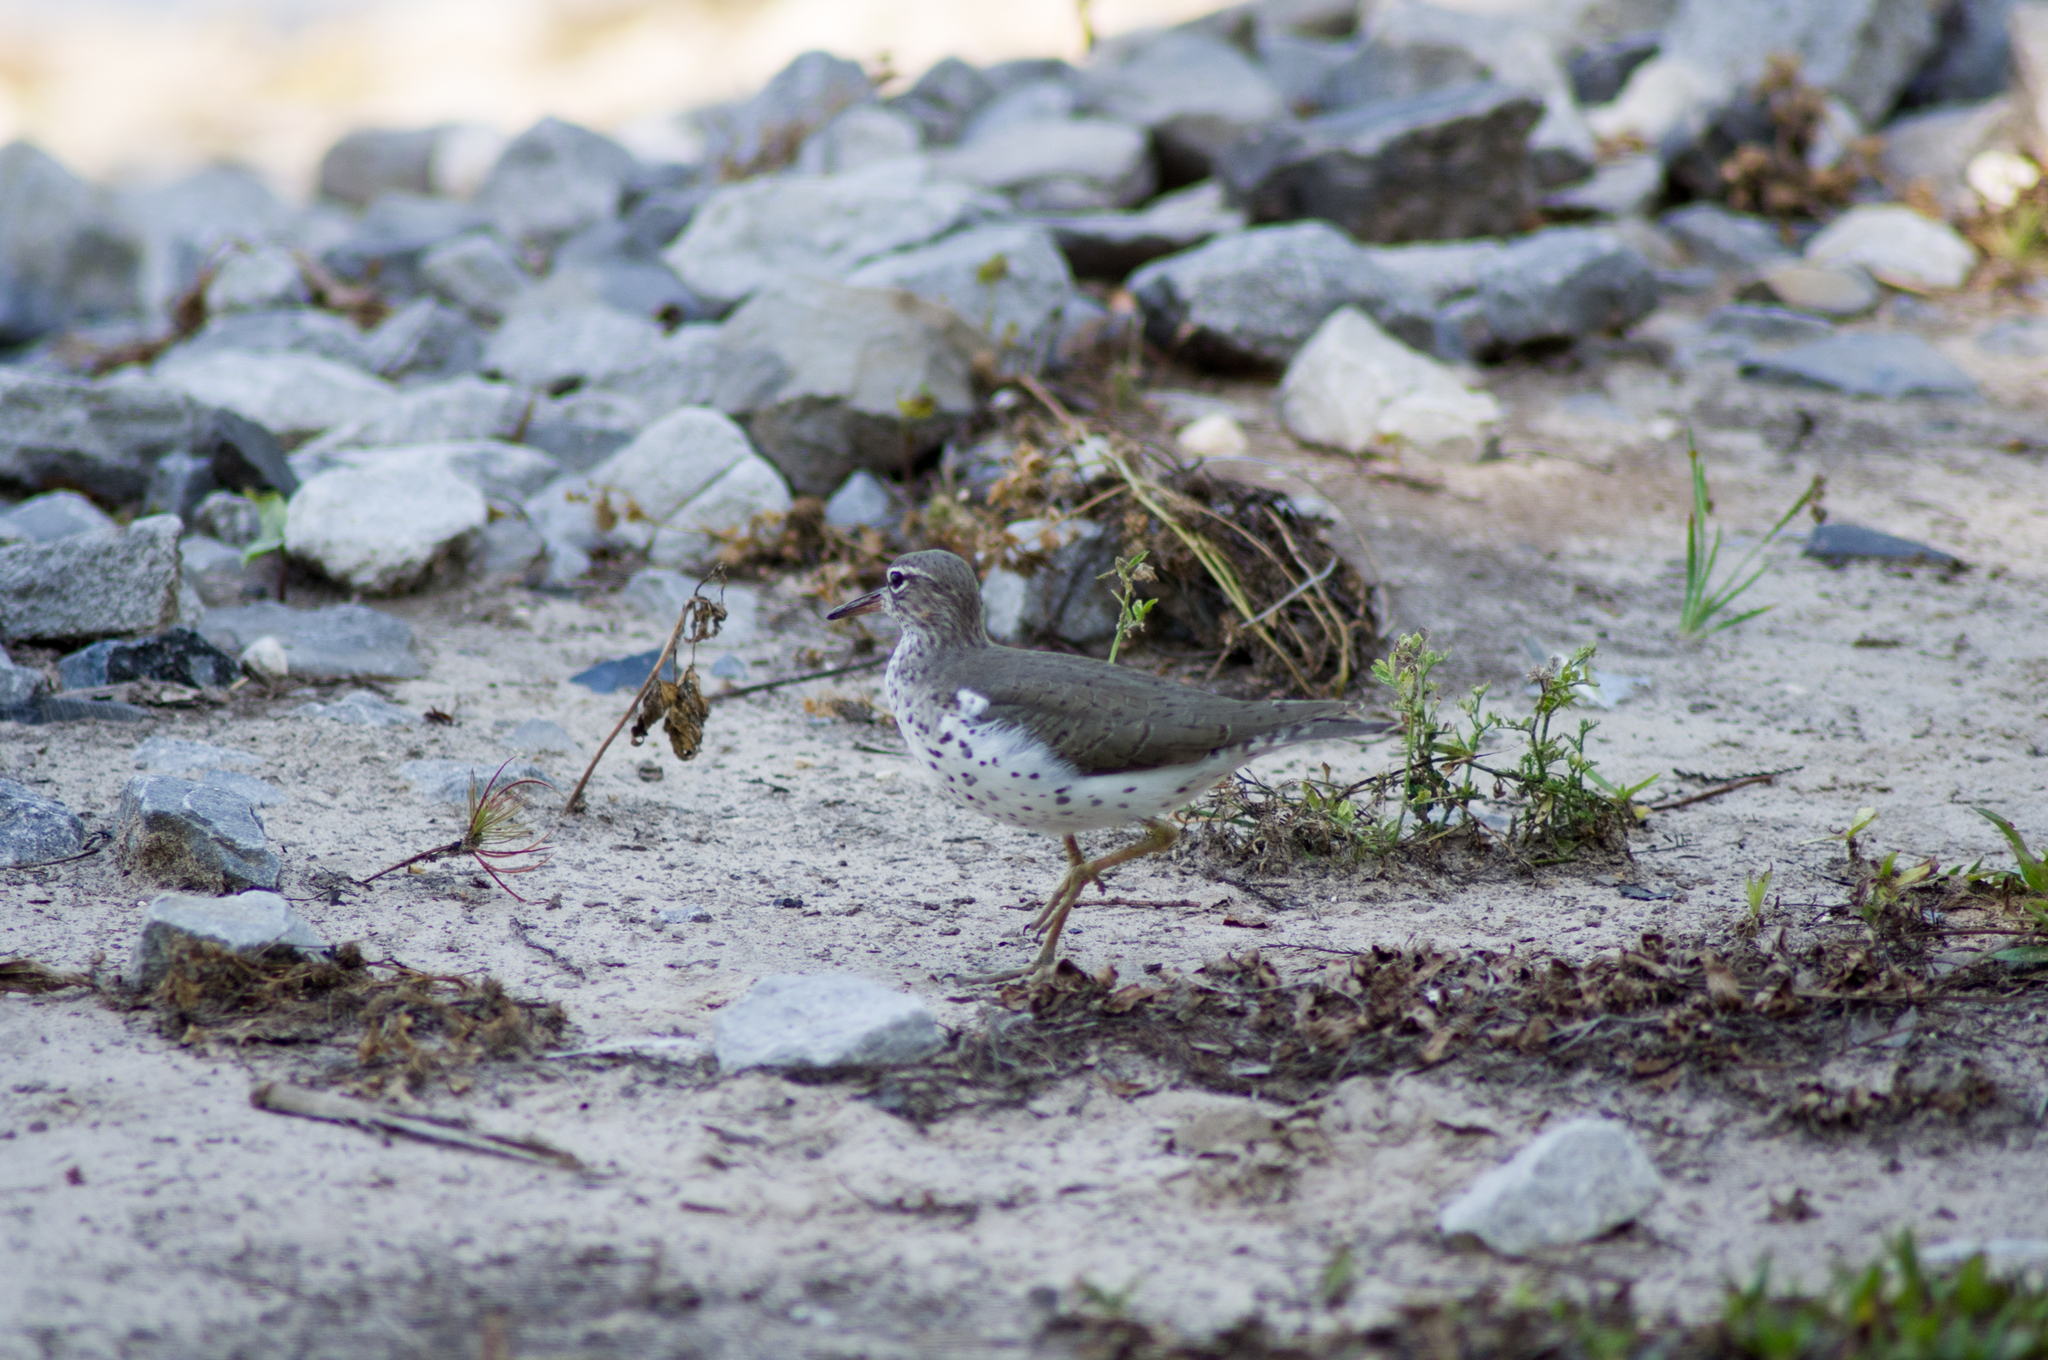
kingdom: Animalia
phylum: Chordata
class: Aves
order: Charadriiformes
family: Scolopacidae
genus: Actitis
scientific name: Actitis macularius
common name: Spotted sandpiper
